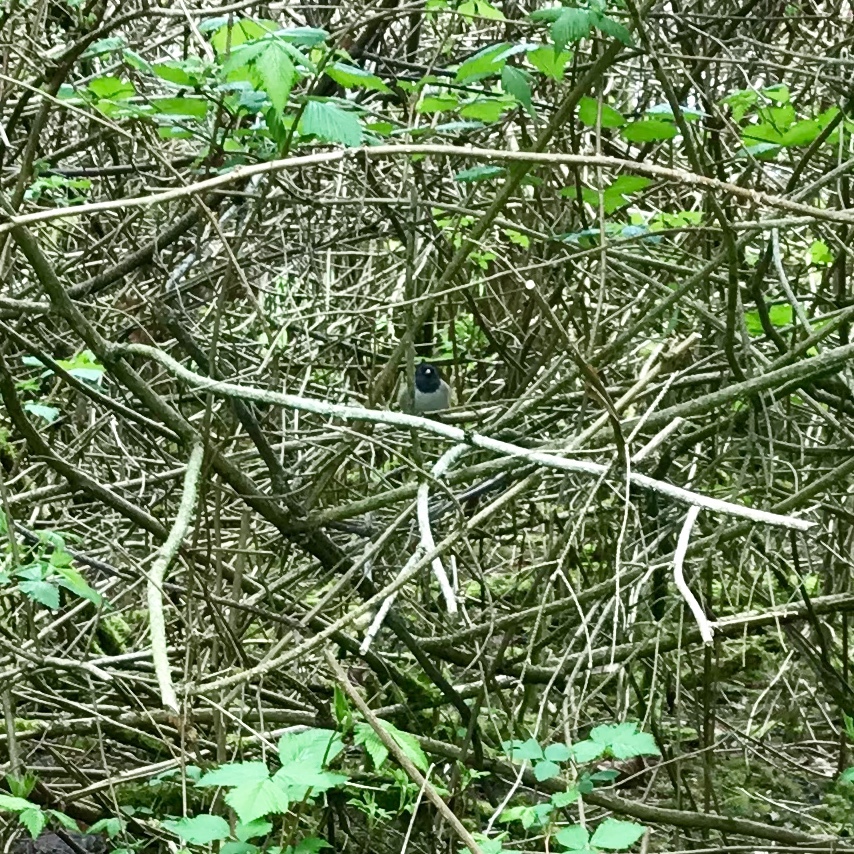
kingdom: Animalia
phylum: Chordata
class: Aves
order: Passeriformes
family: Passerellidae
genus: Junco
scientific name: Junco hyemalis
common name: Dark-eyed junco
